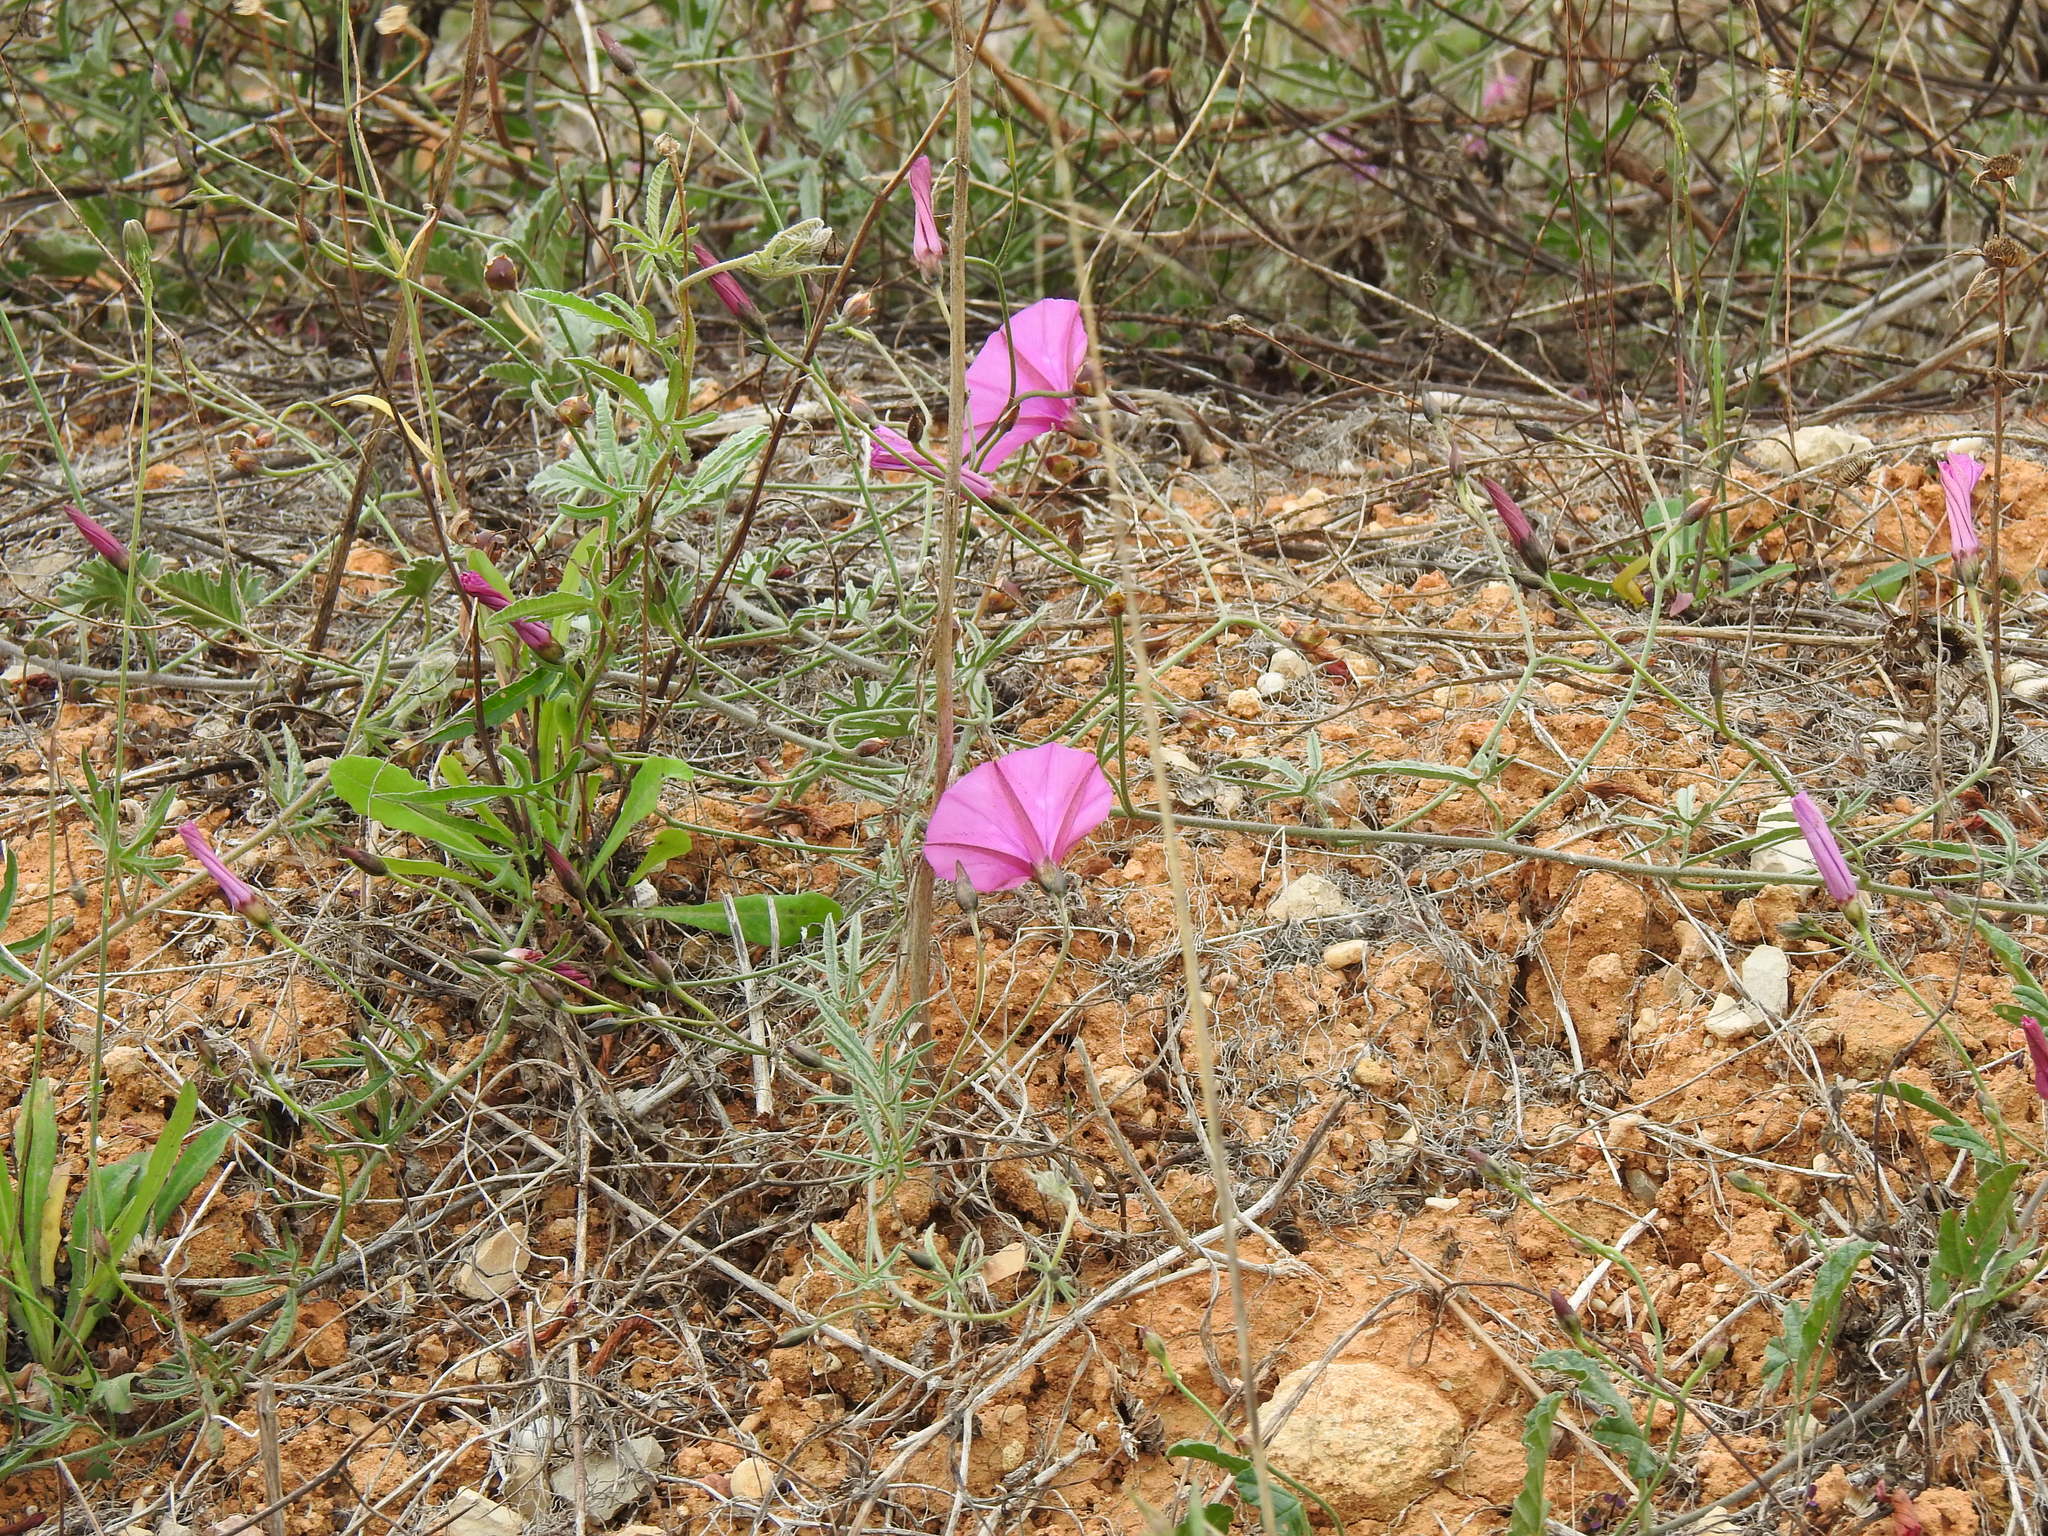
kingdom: Plantae
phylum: Tracheophyta
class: Magnoliopsida
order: Solanales
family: Convolvulaceae
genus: Convolvulus
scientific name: Convolvulus althaeoides
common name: Mallow bindweed
